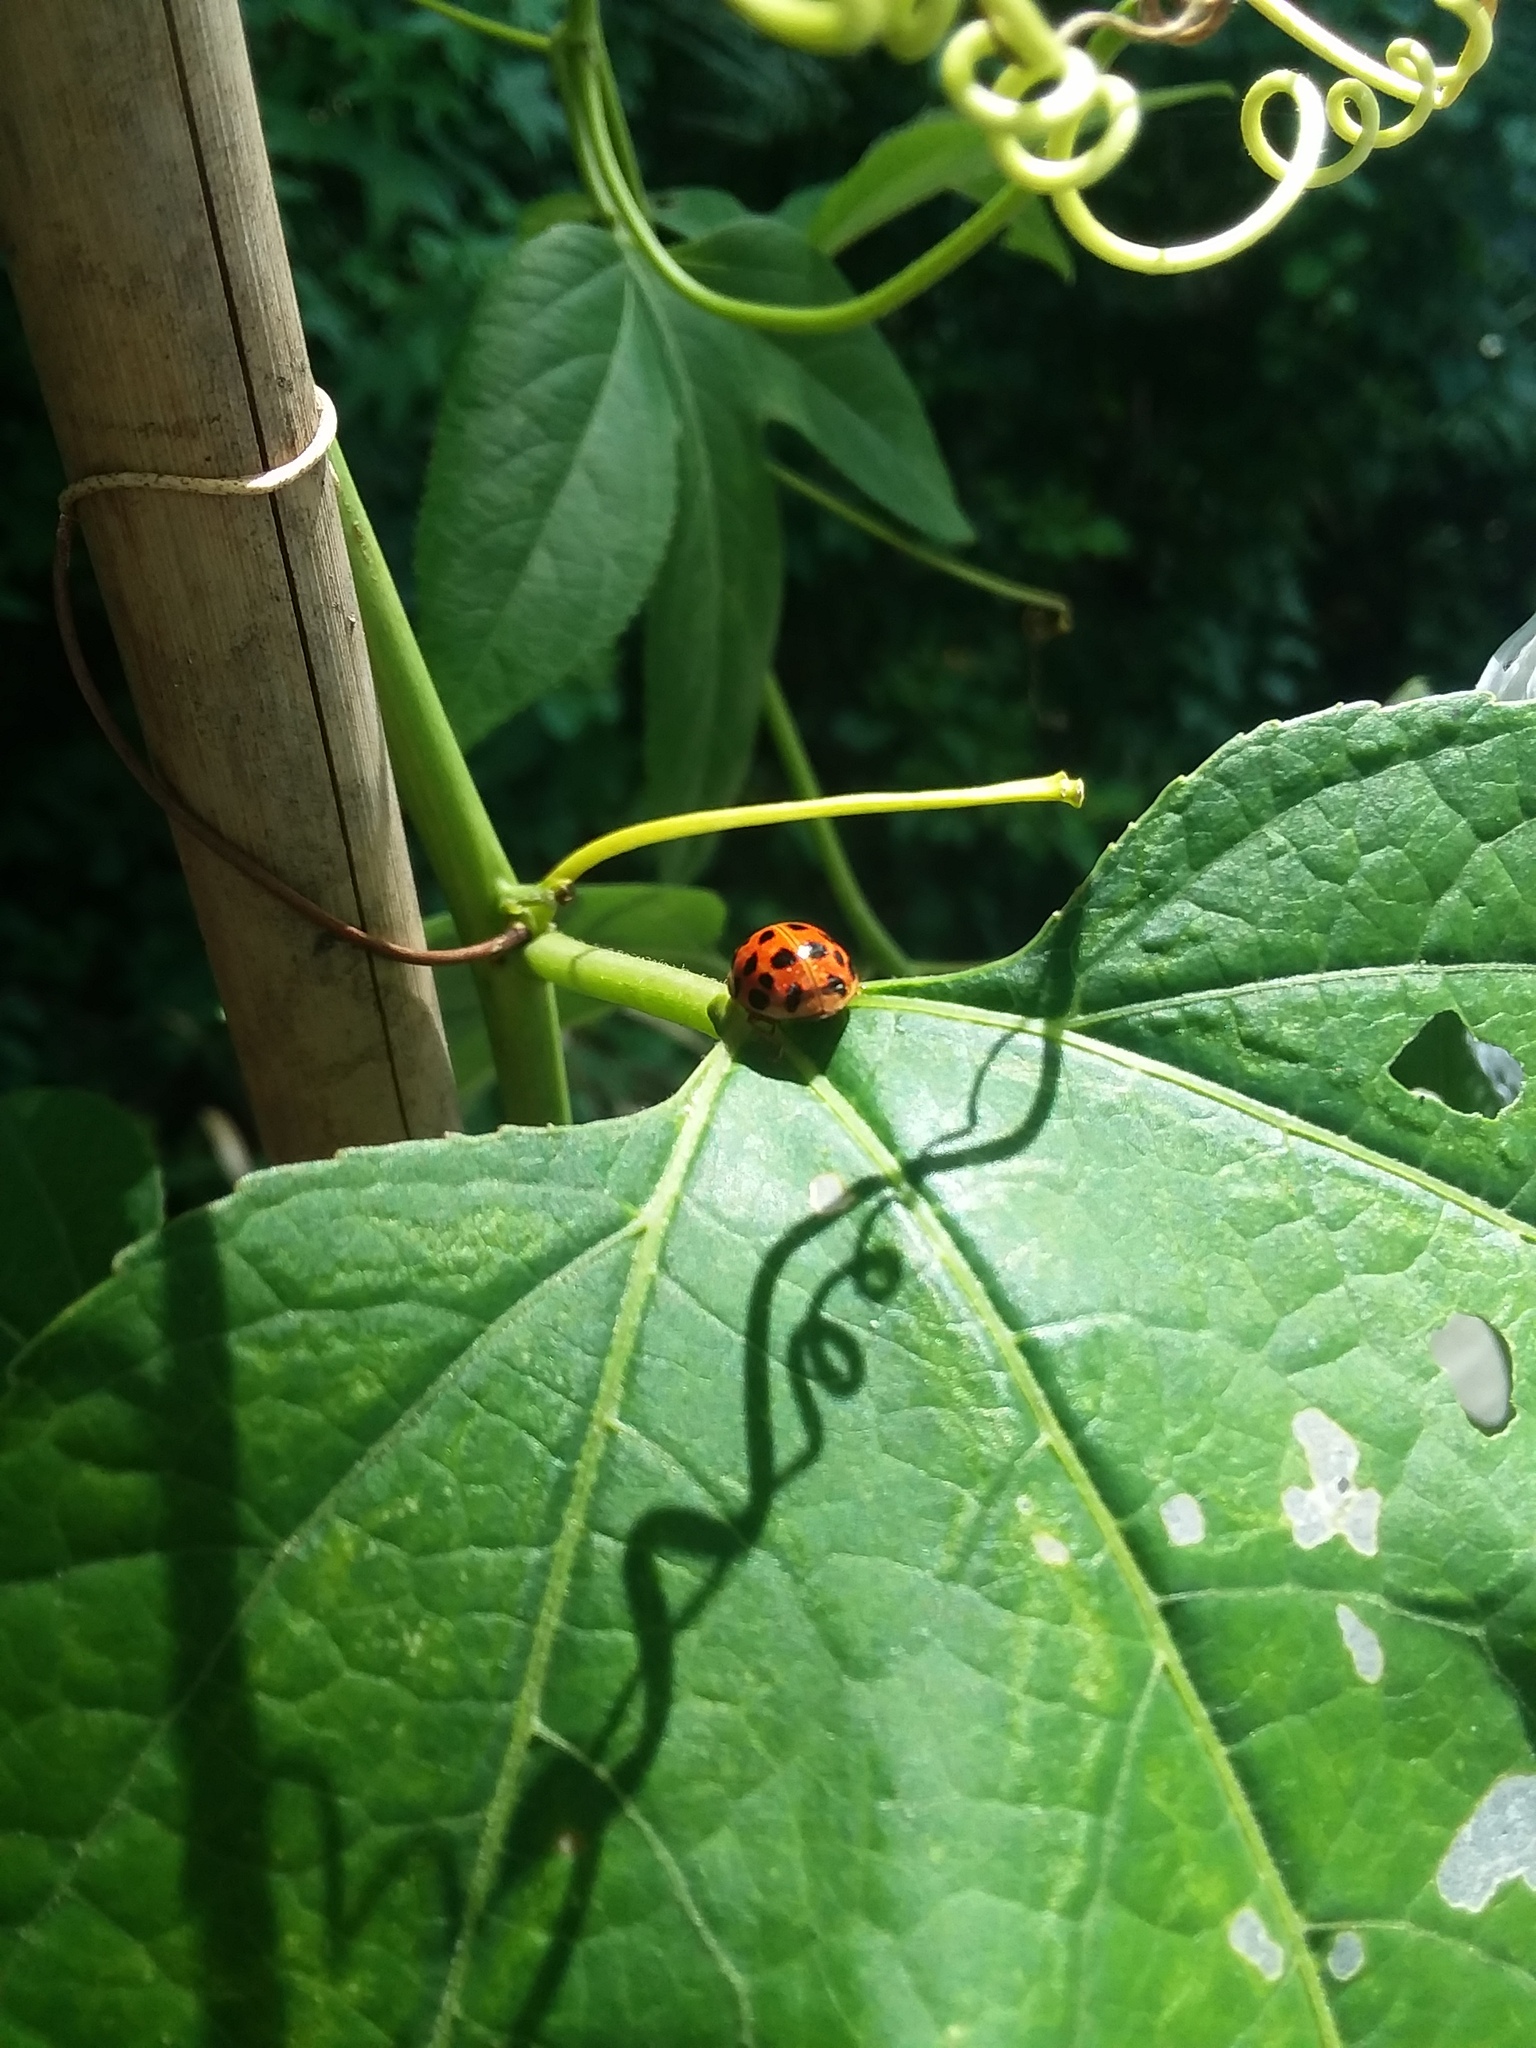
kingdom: Animalia
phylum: Arthropoda
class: Insecta
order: Coleoptera
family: Coccinellidae
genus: Harmonia
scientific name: Harmonia axyridis
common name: Harlequin ladybird
